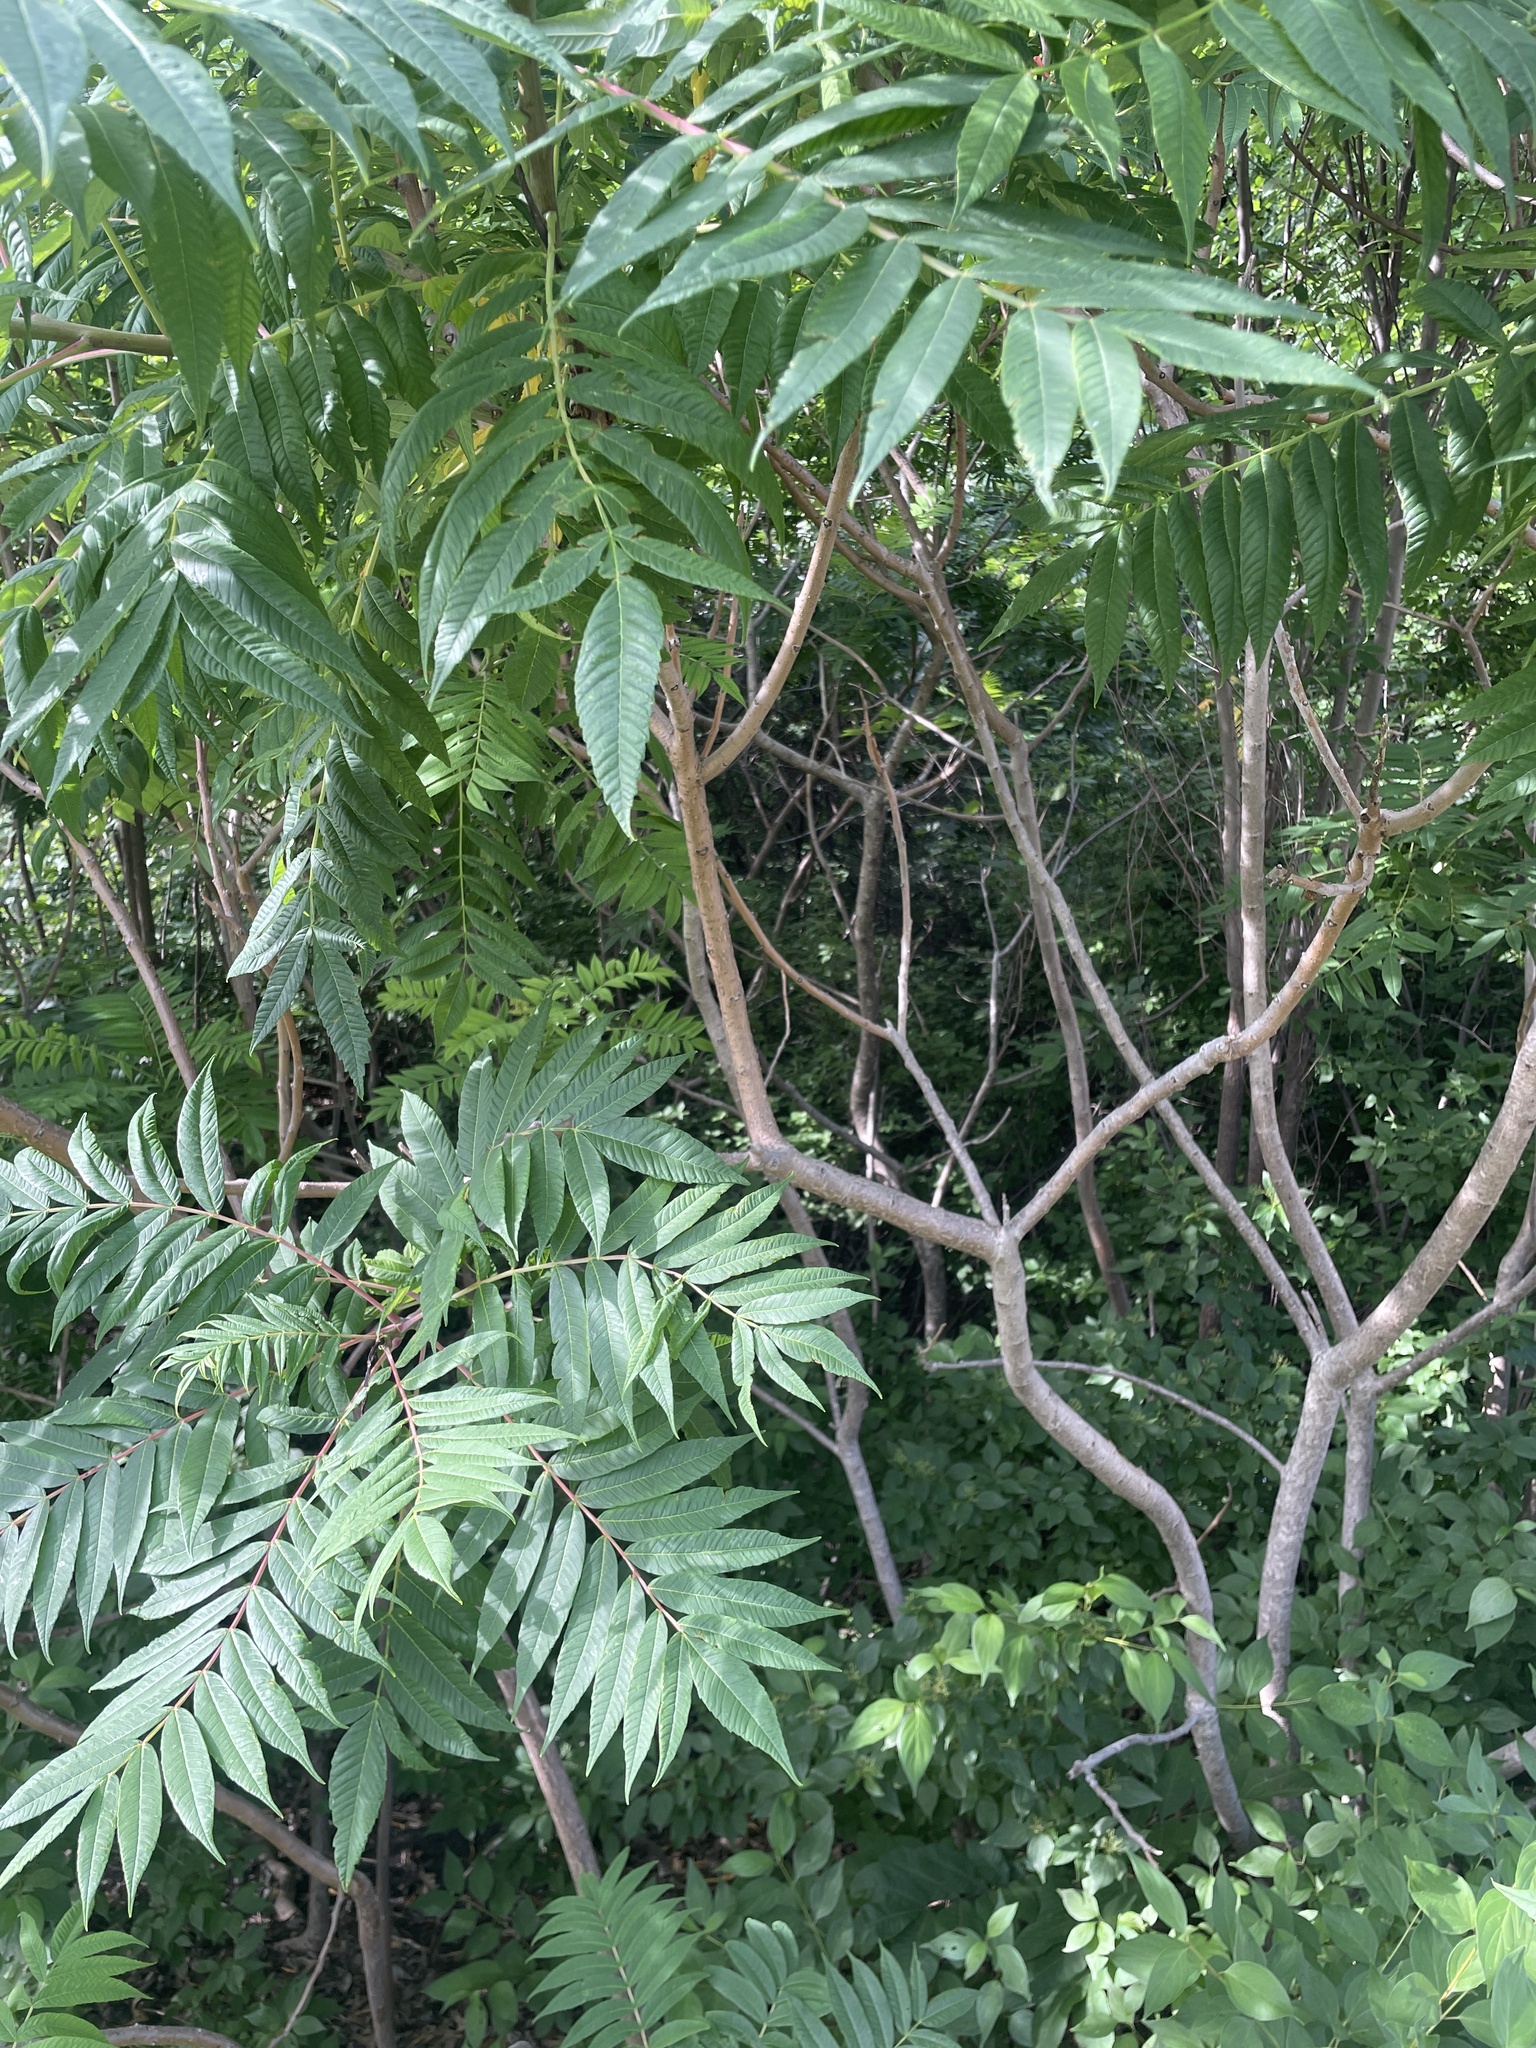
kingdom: Plantae
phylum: Tracheophyta
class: Magnoliopsida
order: Sapindales
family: Anacardiaceae
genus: Rhus
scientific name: Rhus glabra
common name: Scarlet sumac
